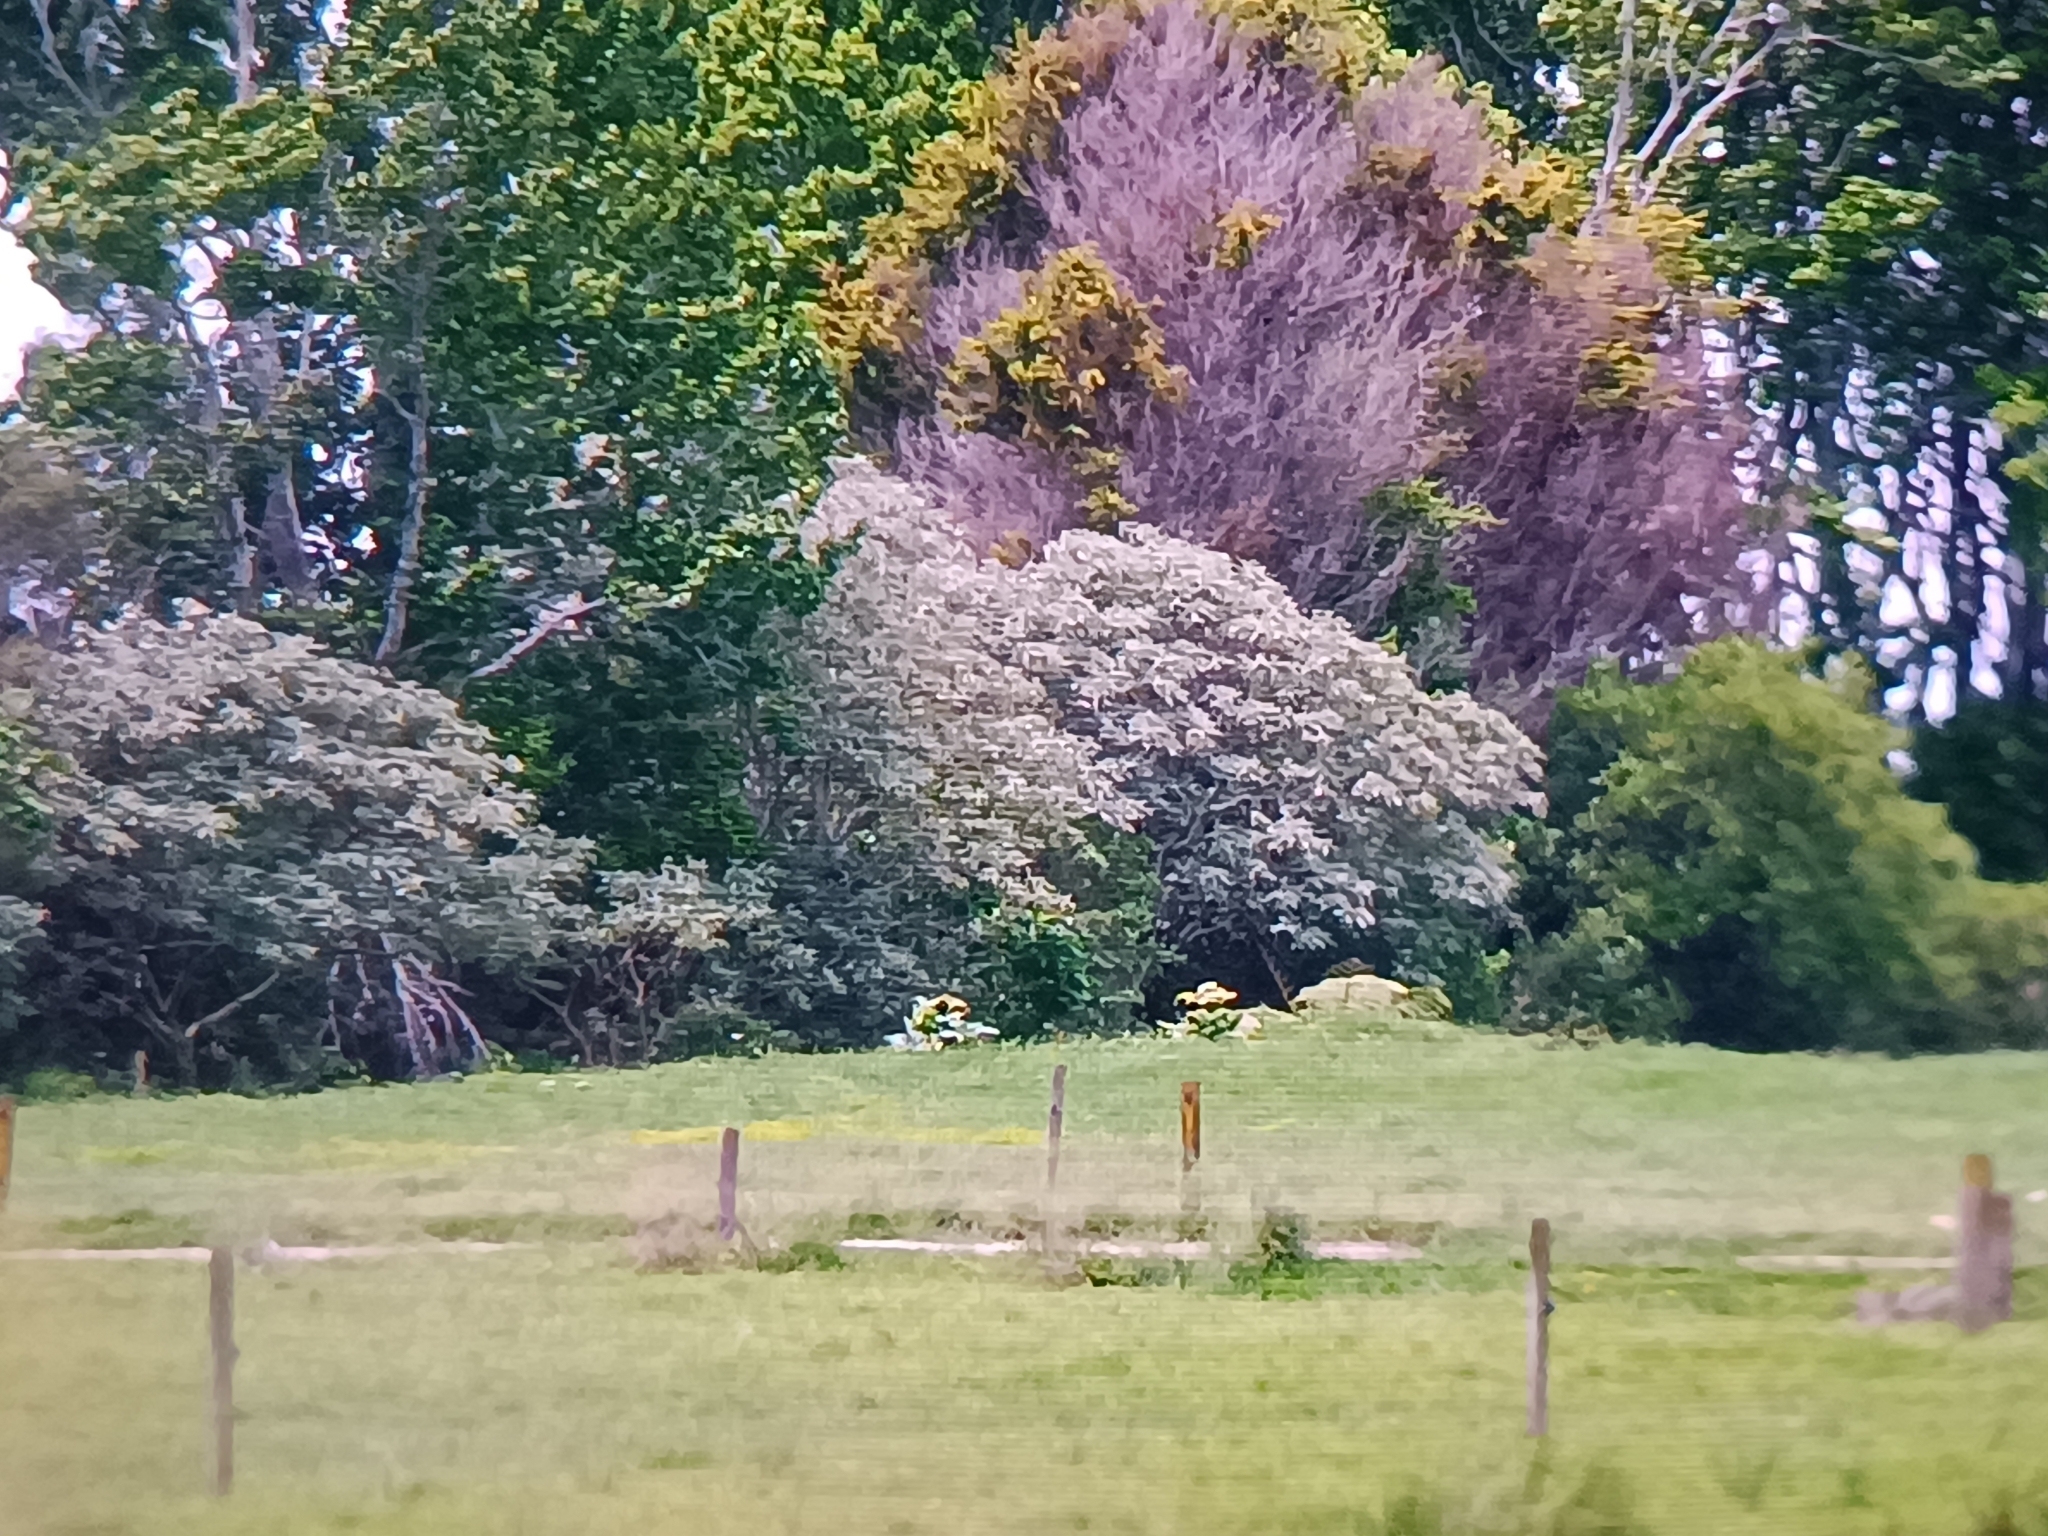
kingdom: Plantae
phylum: Tracheophyta
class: Magnoliopsida
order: Solanales
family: Solanaceae
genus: Solanum
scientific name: Solanum mauritianum
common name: Earleaf nightshade
